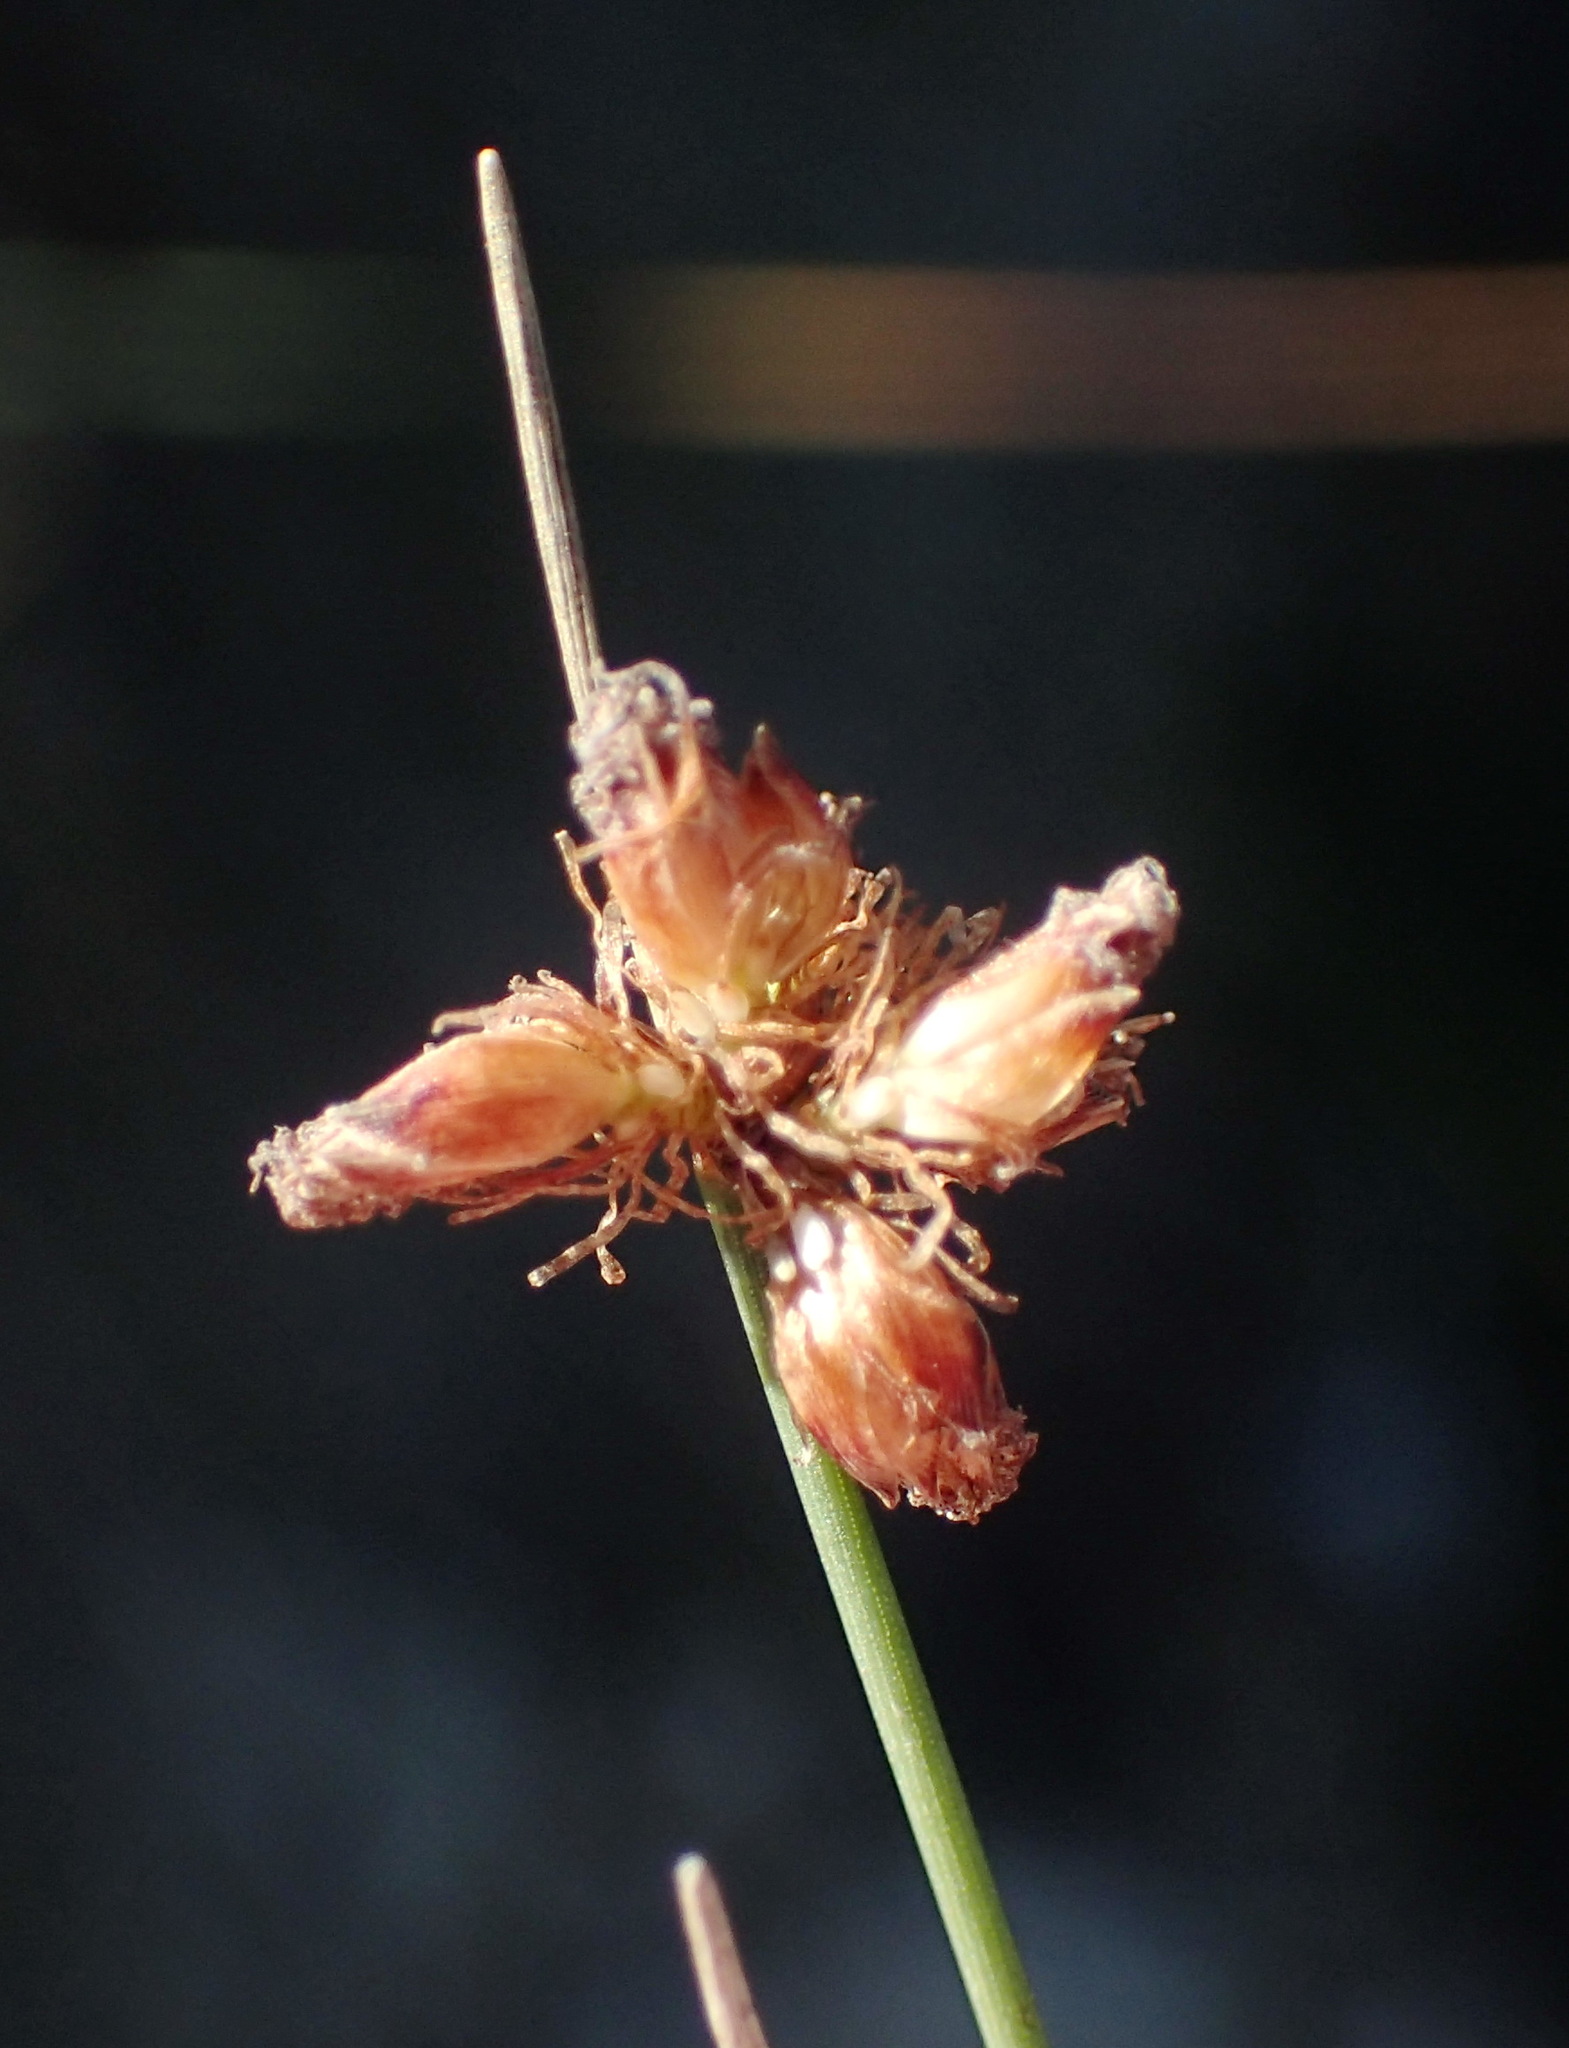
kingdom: Plantae
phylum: Tracheophyta
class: Liliopsida
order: Poales
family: Cyperaceae
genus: Ficinia
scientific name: Ficinia lateralis
